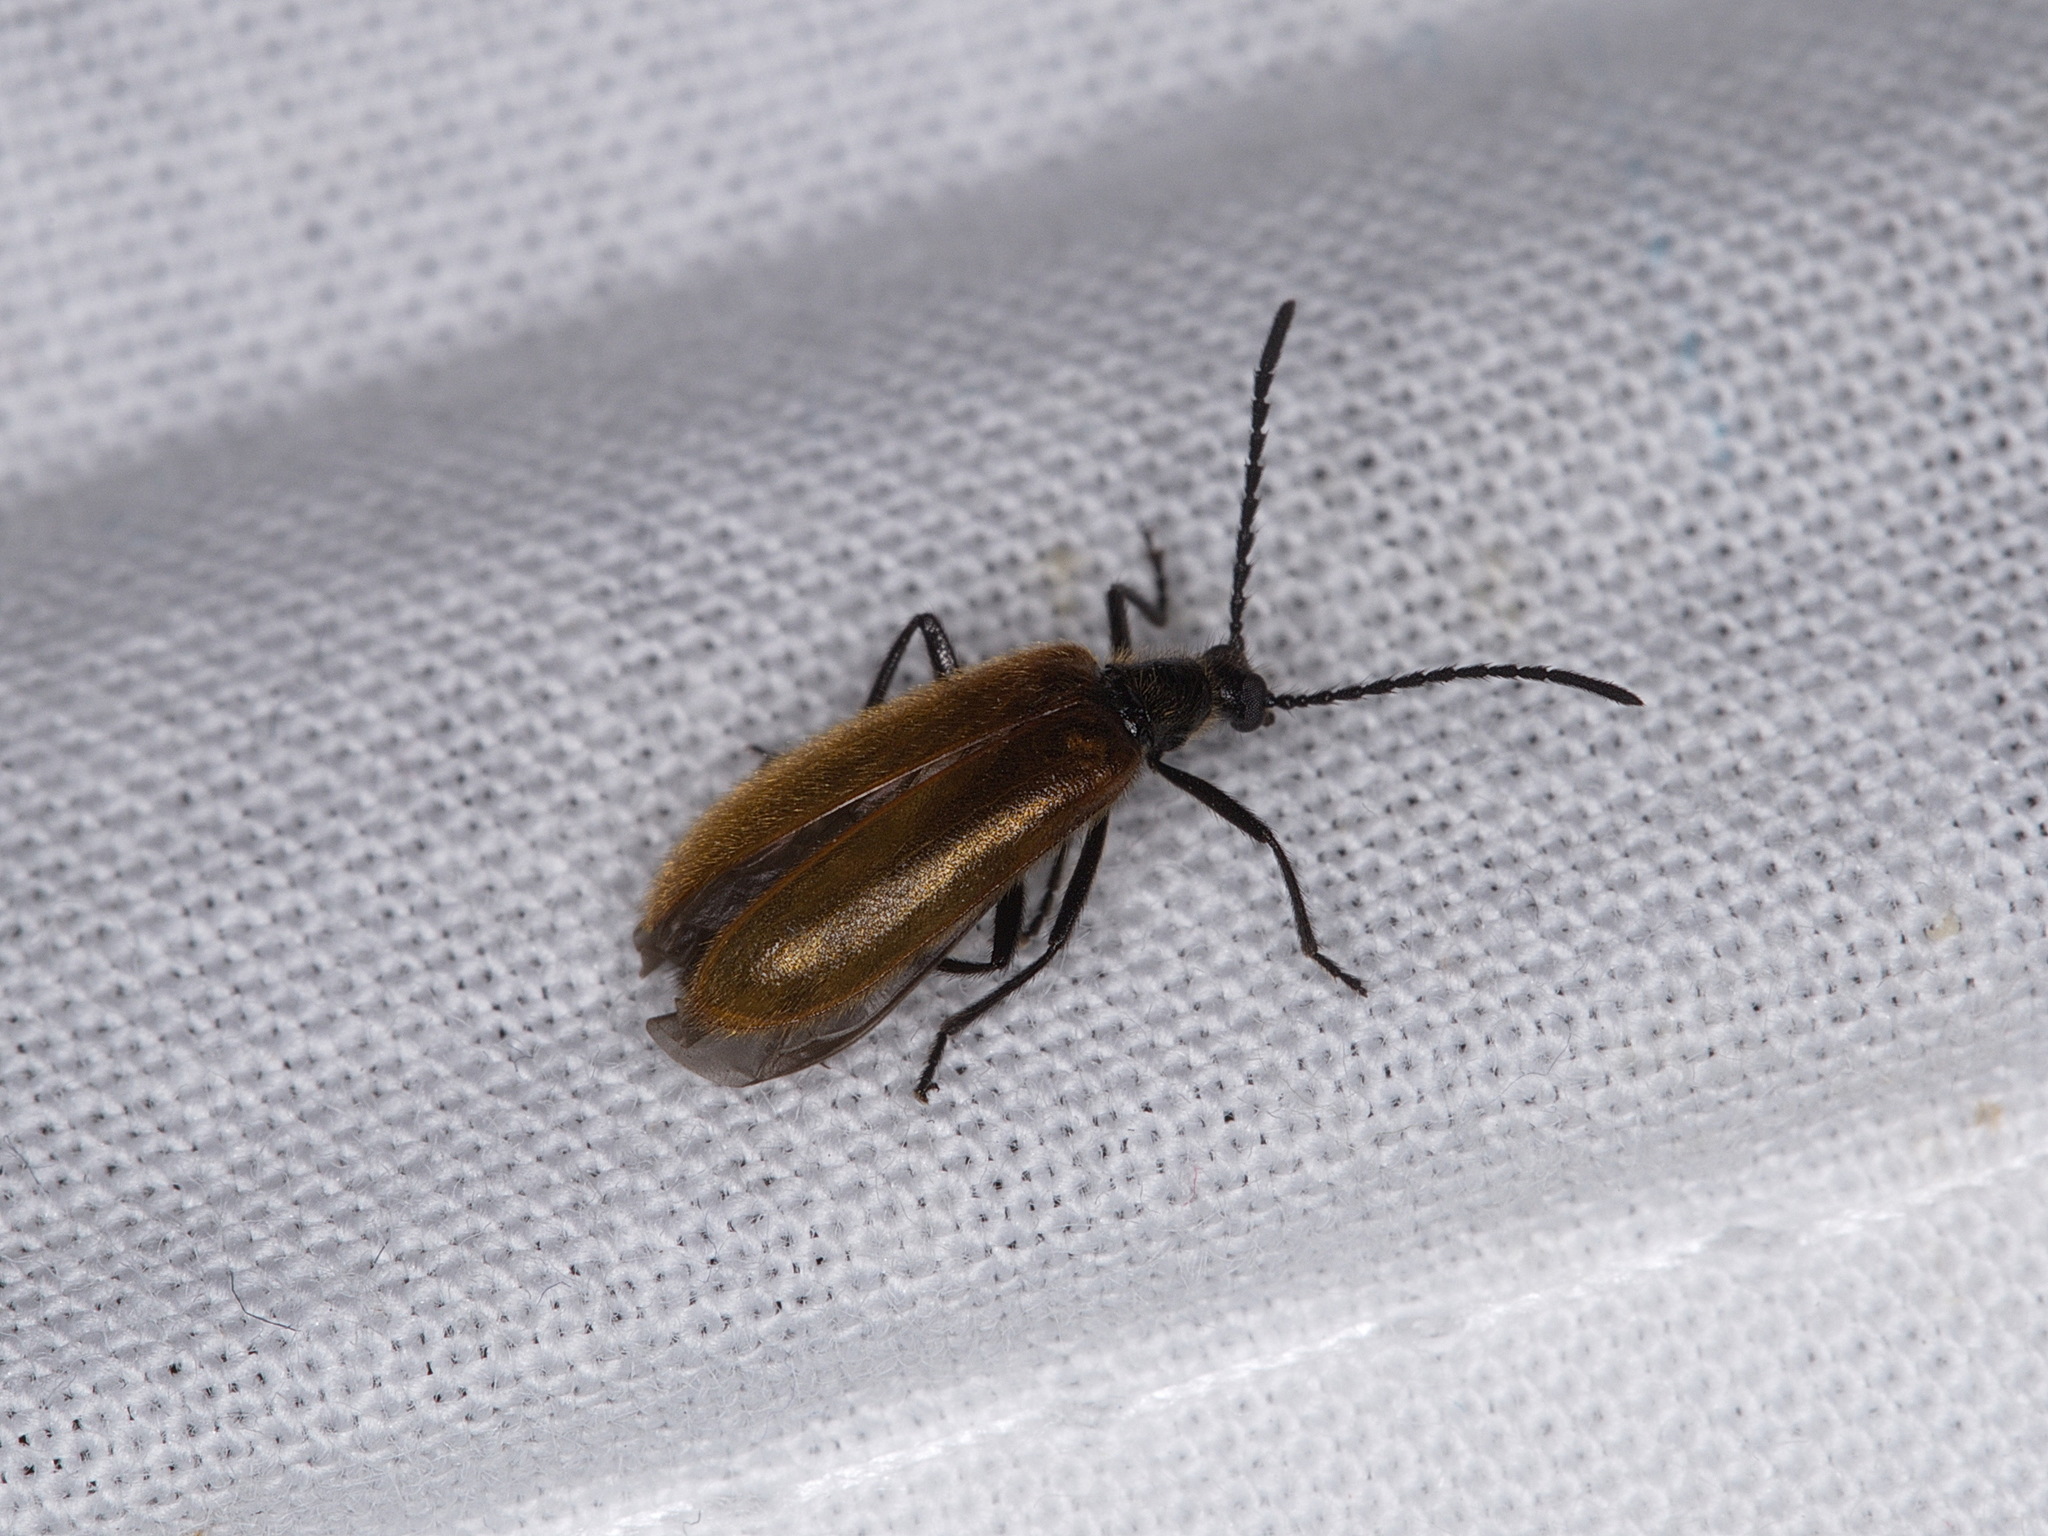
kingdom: Animalia
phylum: Arthropoda
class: Insecta
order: Coleoptera
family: Tenebrionidae
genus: Lagria
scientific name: Lagria hirta
